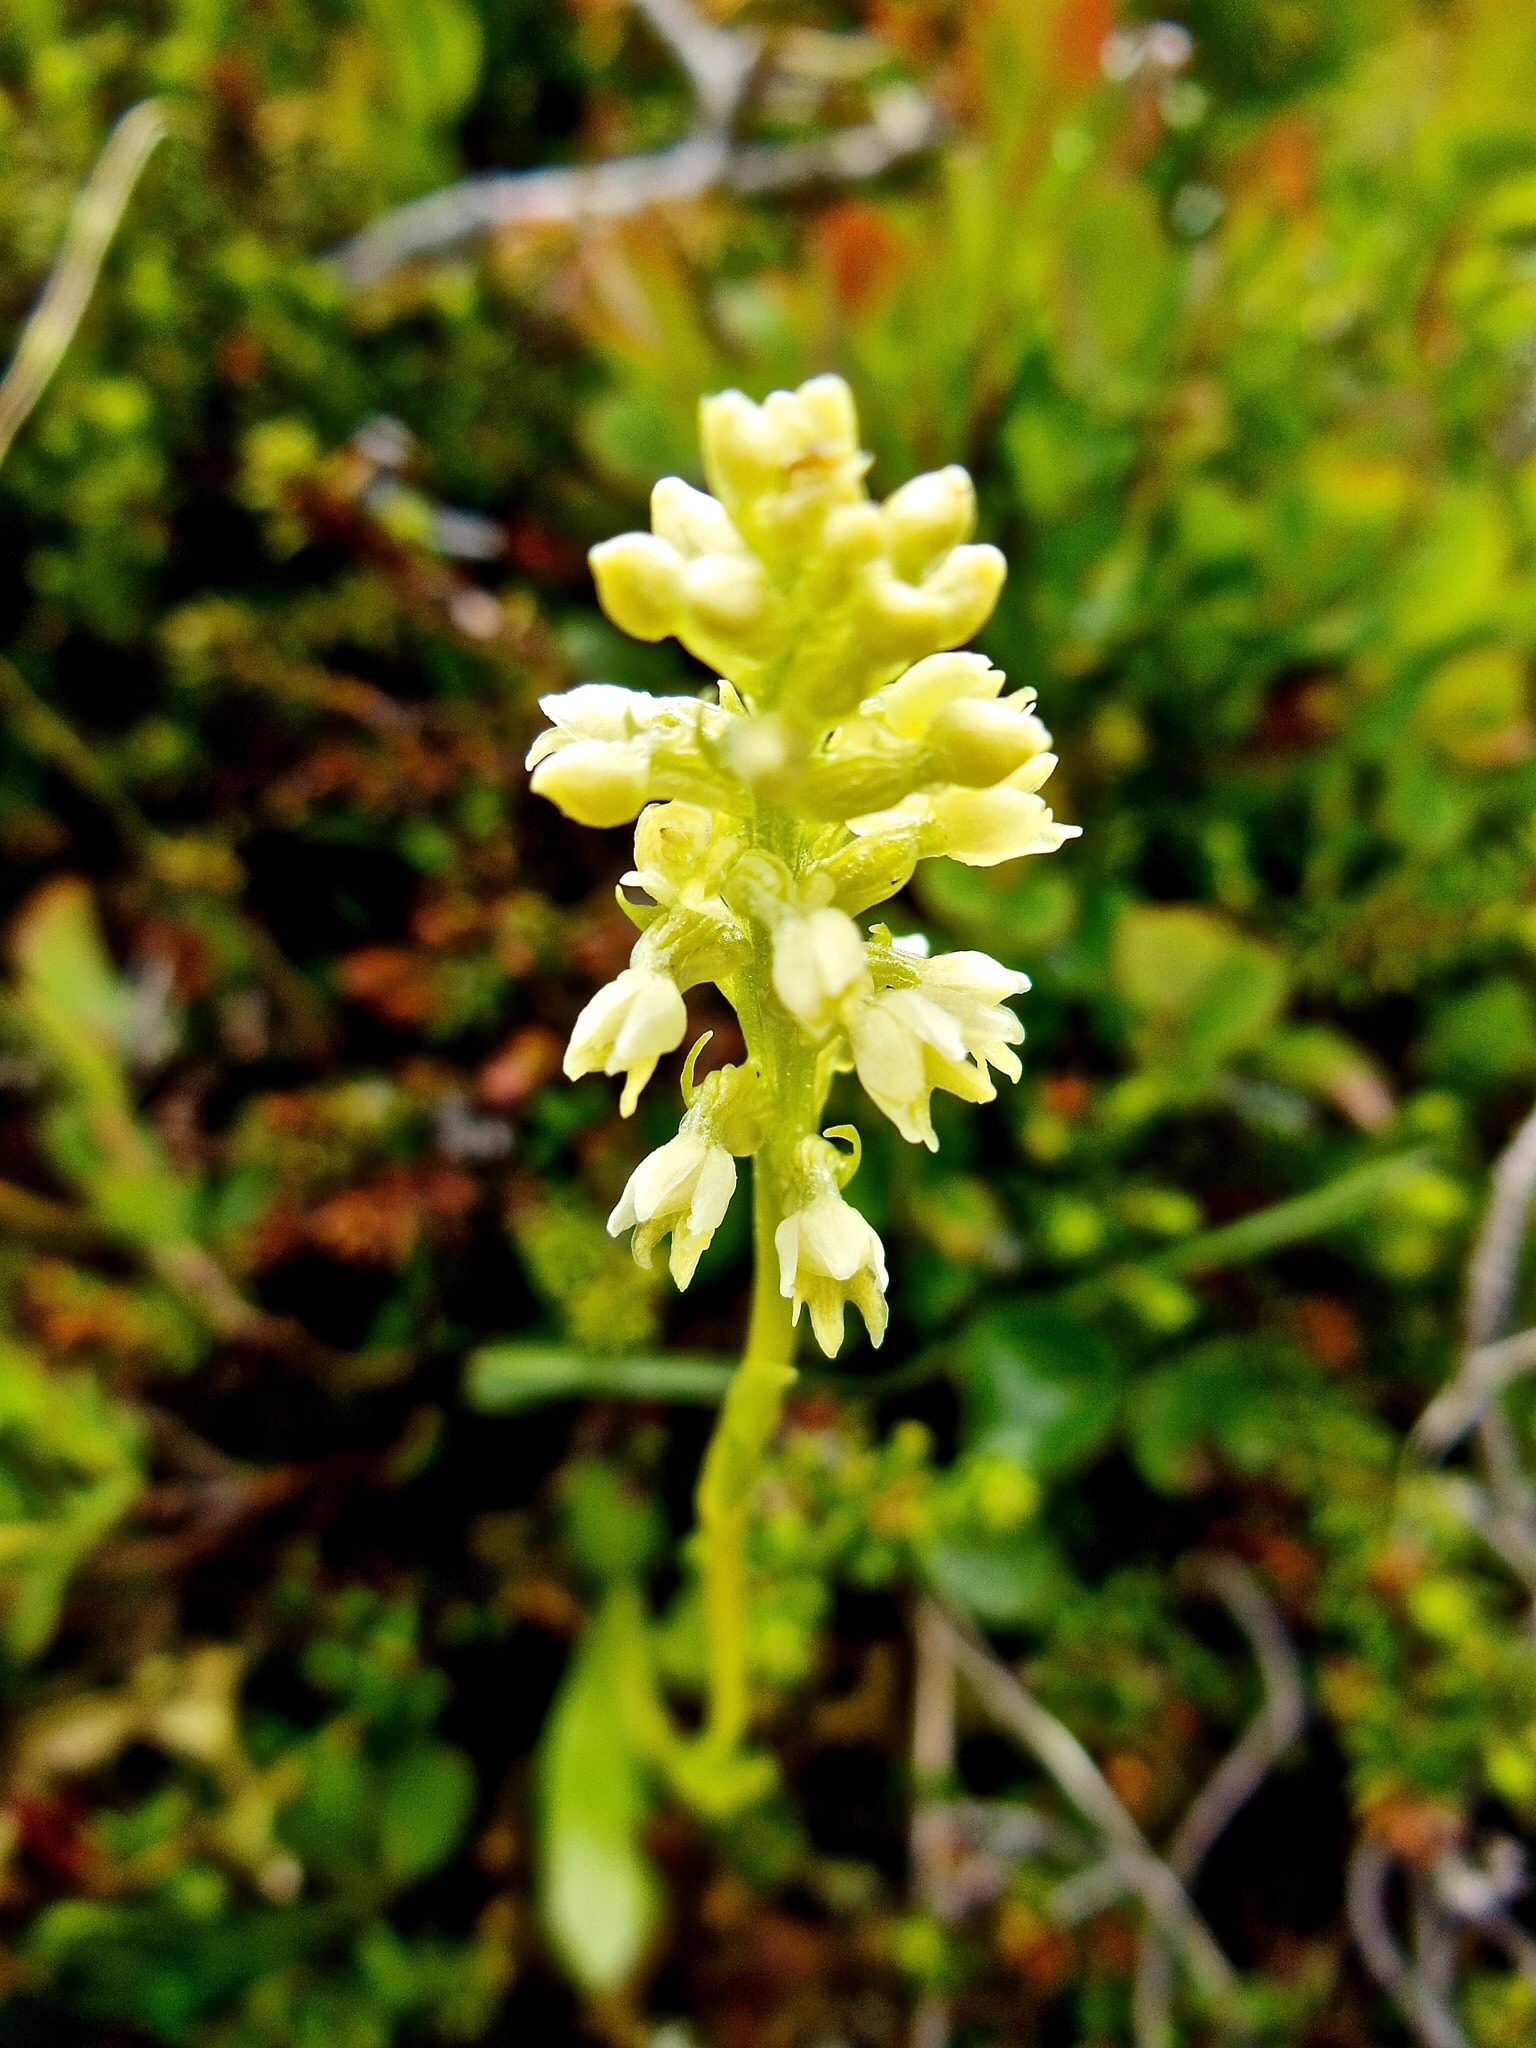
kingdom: Plantae
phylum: Tracheophyta
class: Liliopsida
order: Asparagales
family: Orchidaceae
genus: Pseudorchis
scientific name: Pseudorchis albida
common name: Small-white orchid
